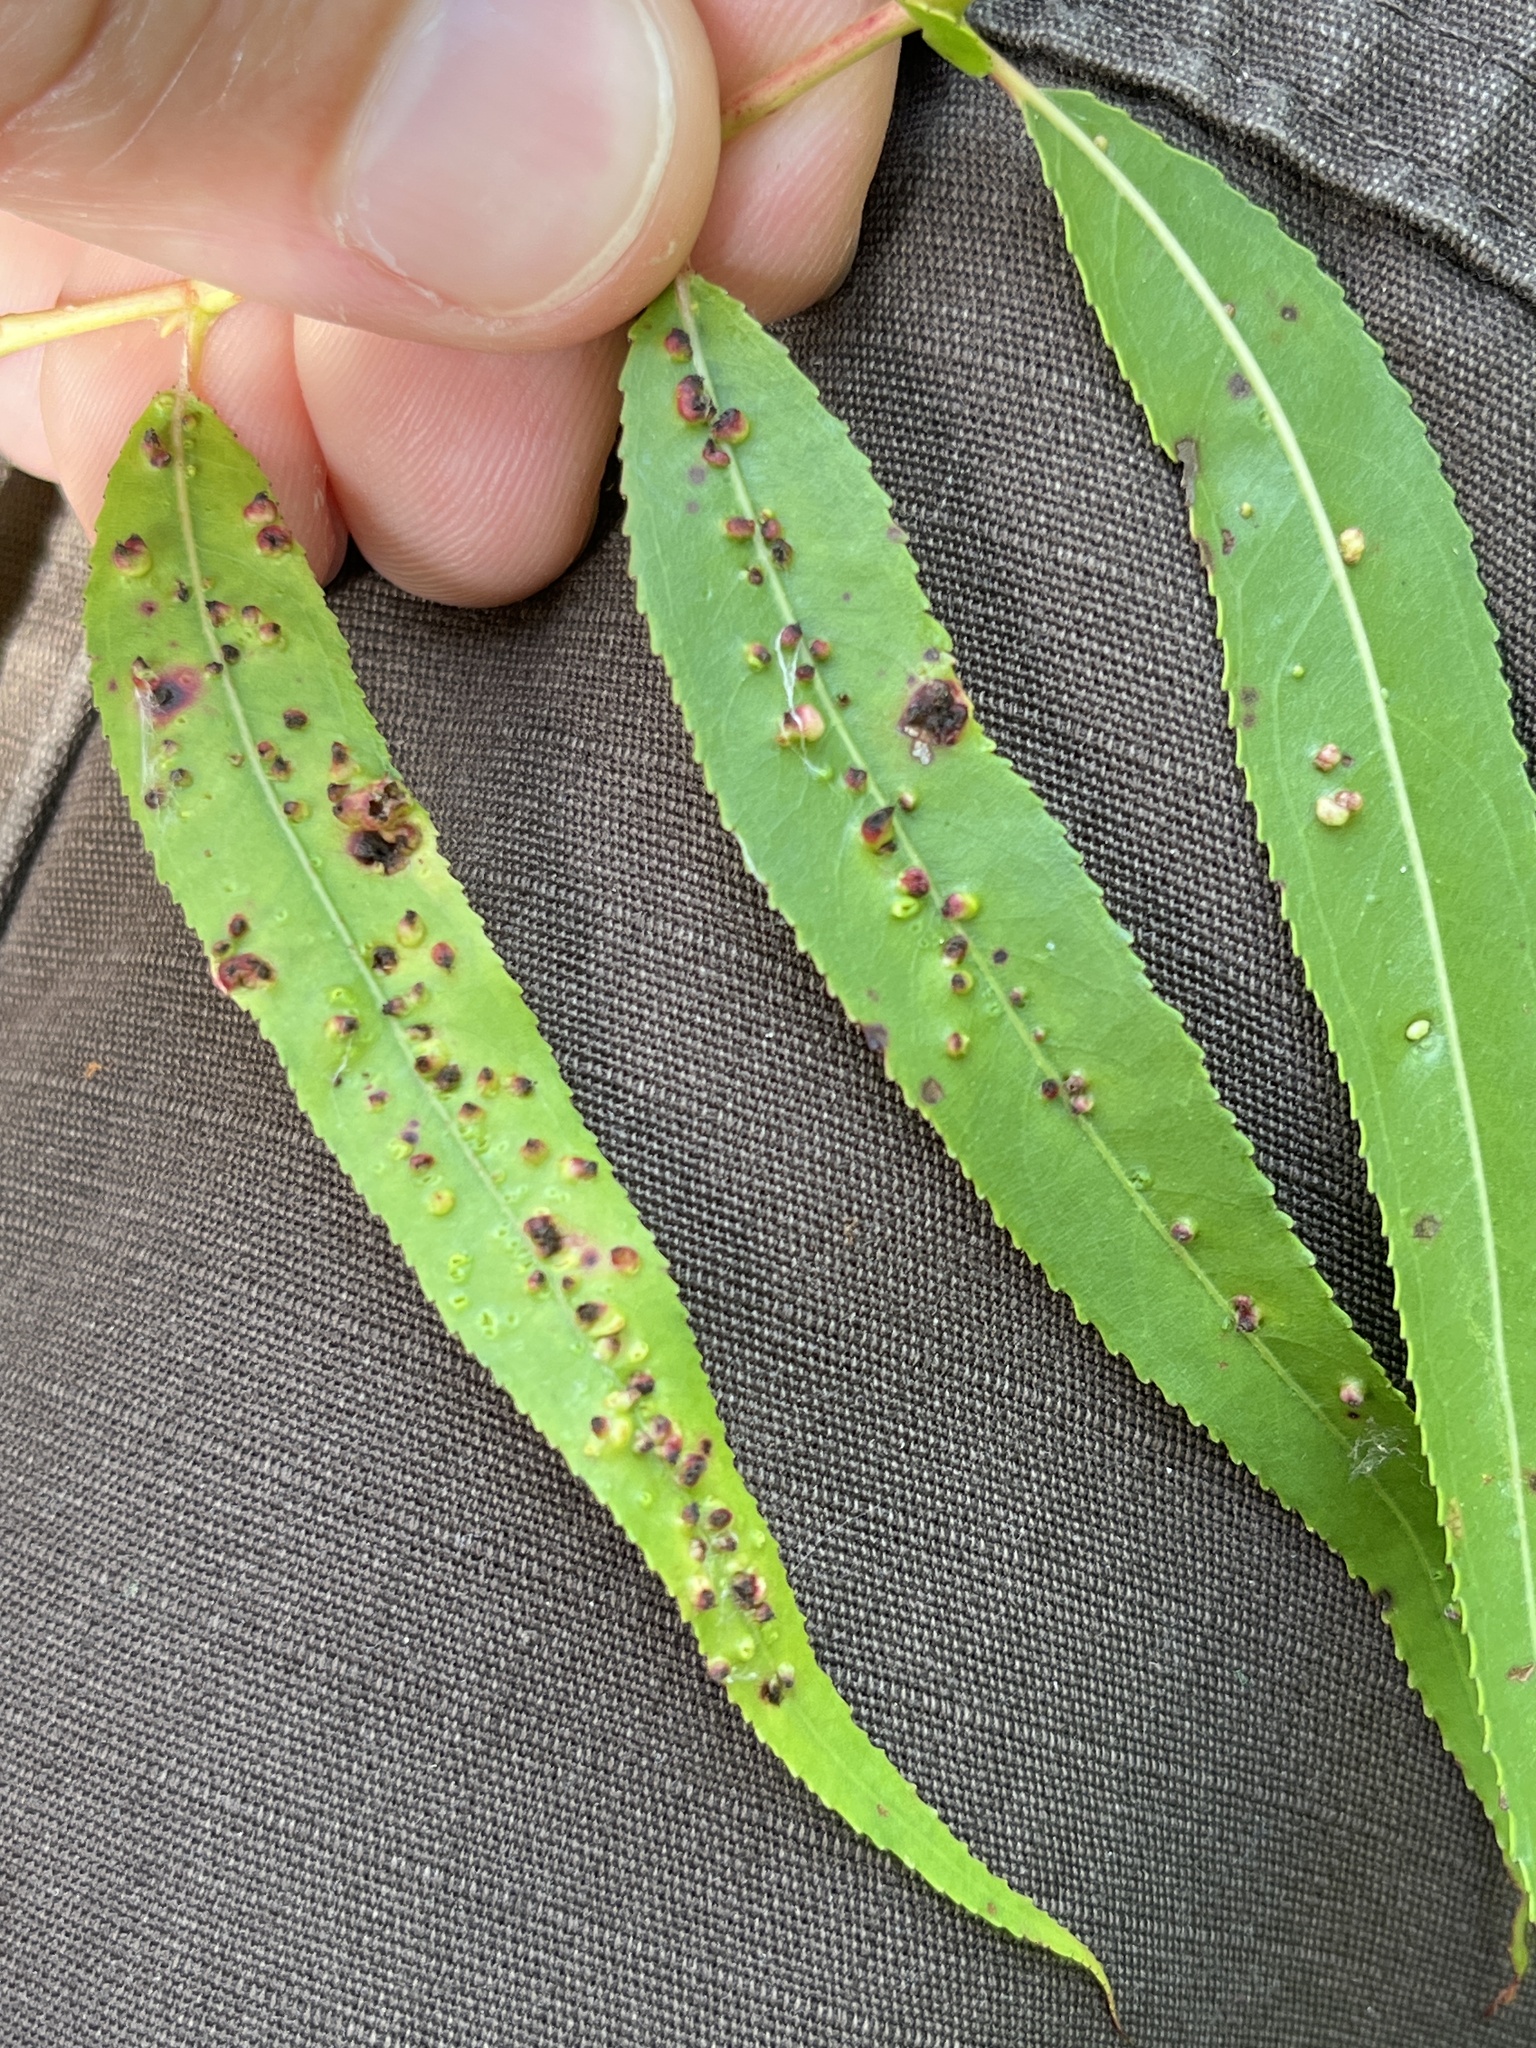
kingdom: Animalia
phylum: Arthropoda
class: Arachnida
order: Trombidiformes
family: Eriophyidae
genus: Aculus
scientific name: Aculus tetanothrix
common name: Willow bead gall mite
